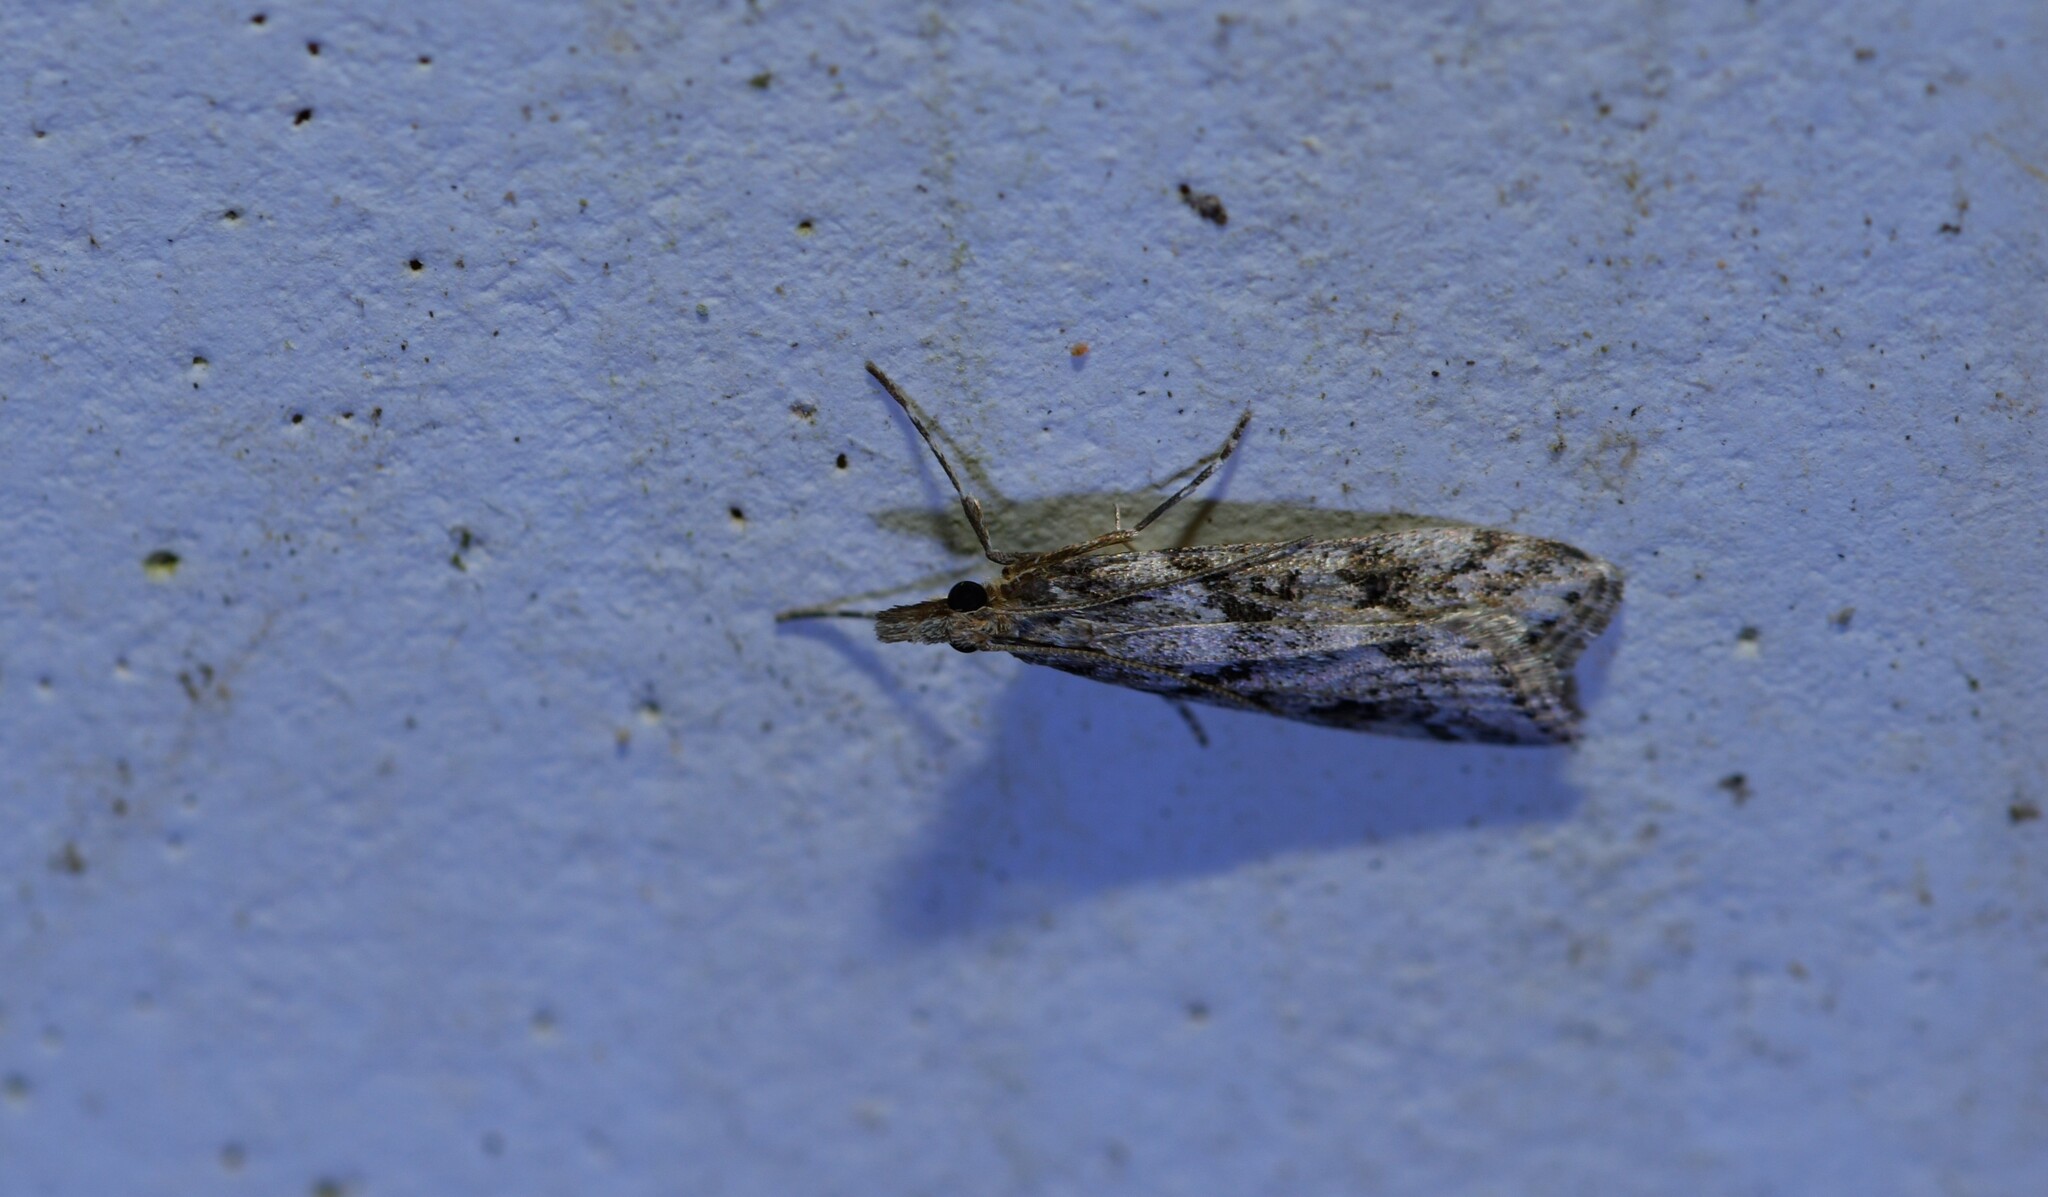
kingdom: Animalia
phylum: Arthropoda
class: Insecta
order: Lepidoptera
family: Crambidae
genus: Eudonia
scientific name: Eudonia angustea
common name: Narrow-winged grey
